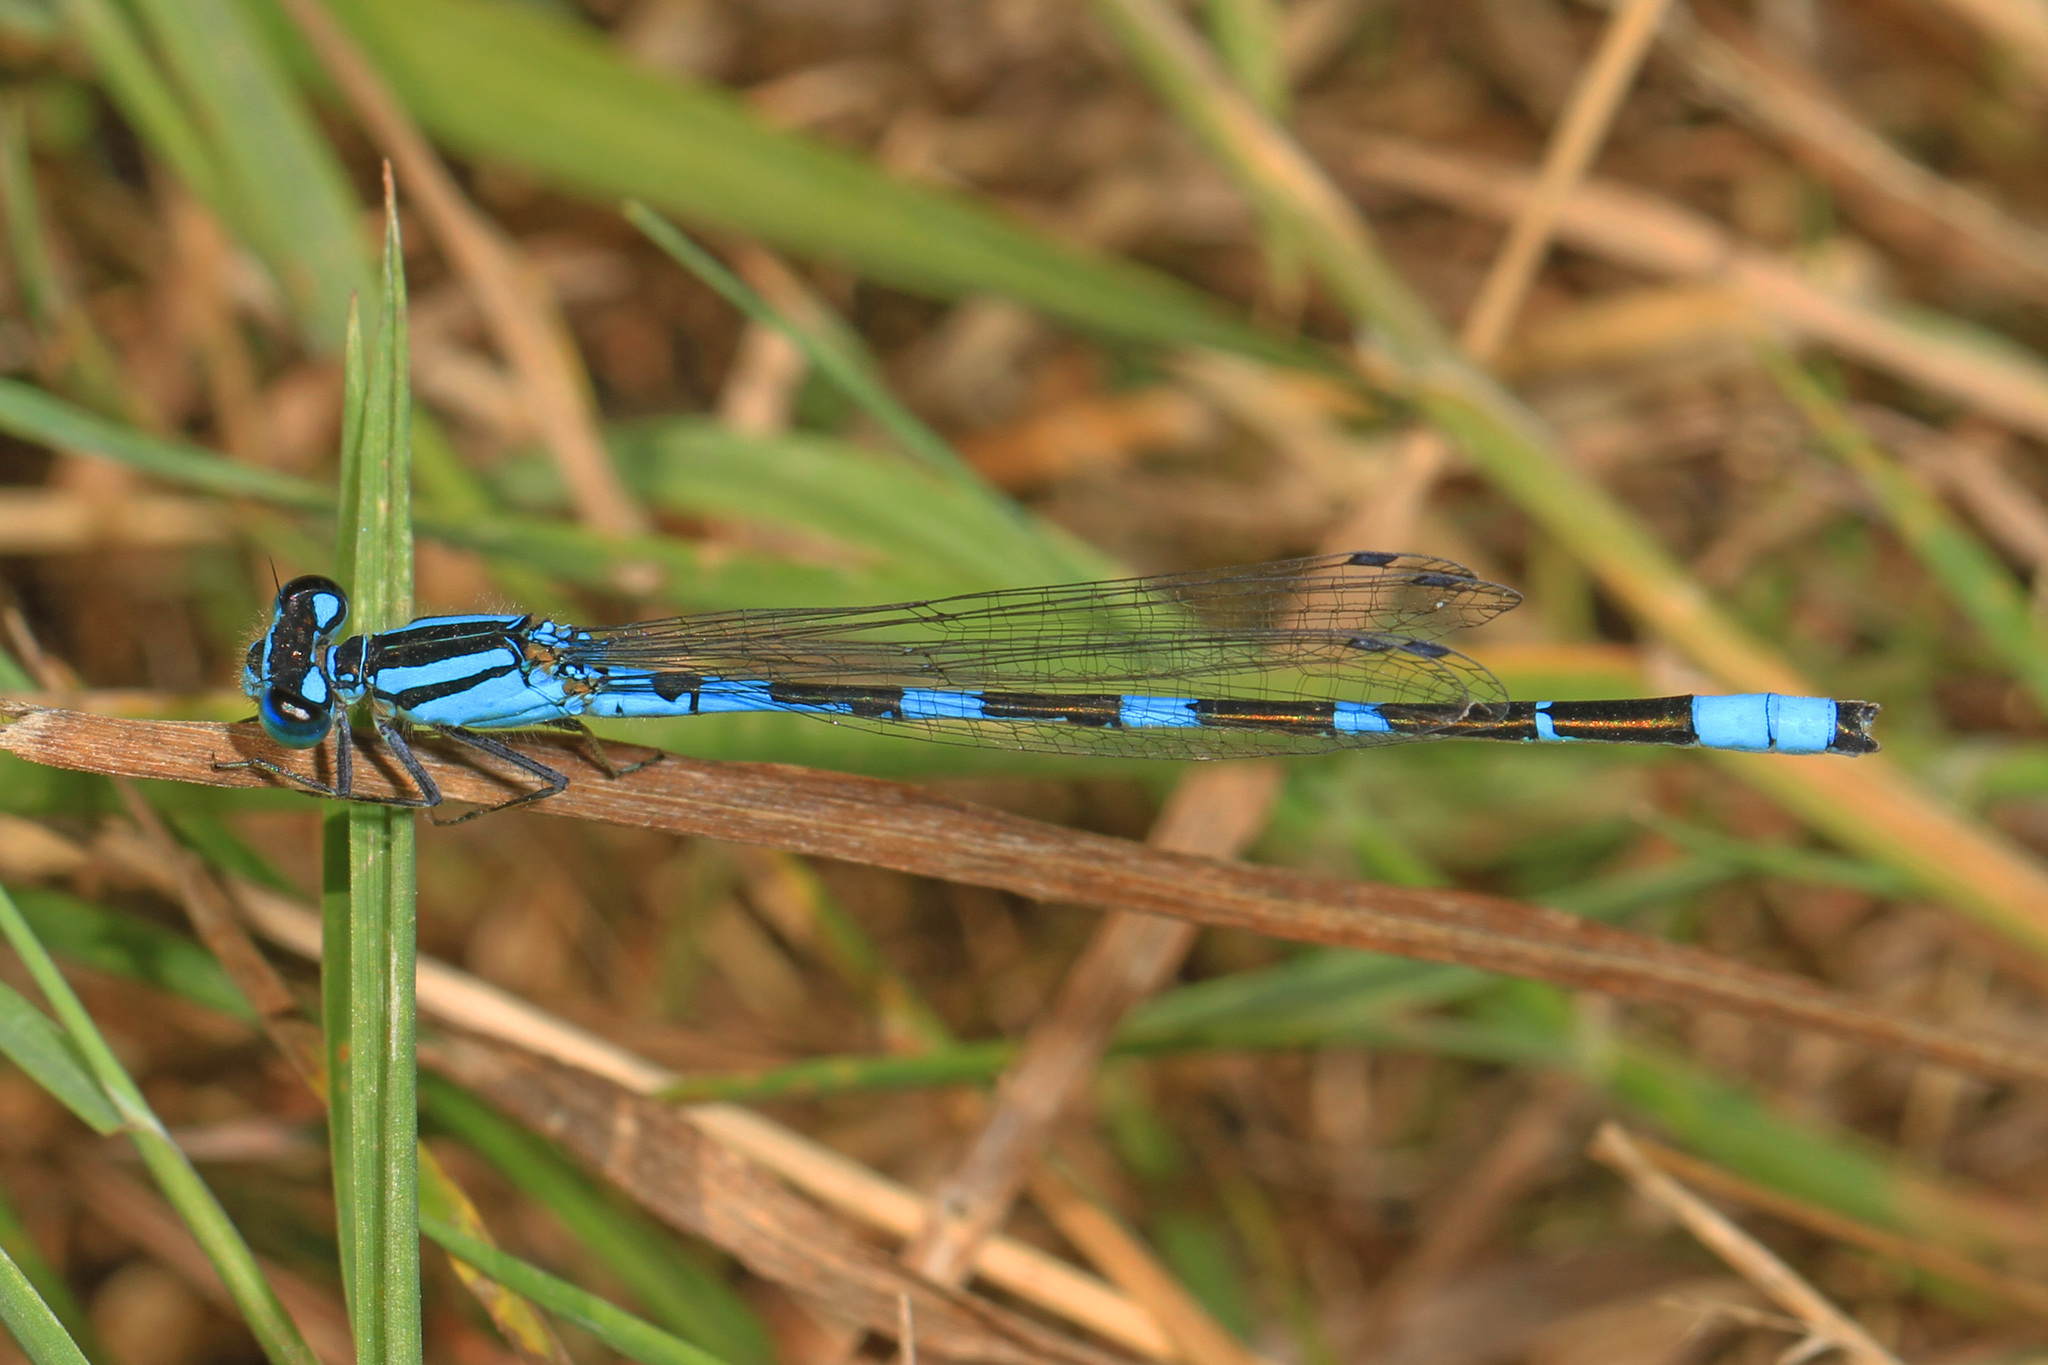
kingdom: Animalia
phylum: Arthropoda
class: Insecta
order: Odonata
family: Coenagrionidae
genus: Enallagma
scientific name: Enallagma carunculatum
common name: Tule bluet
